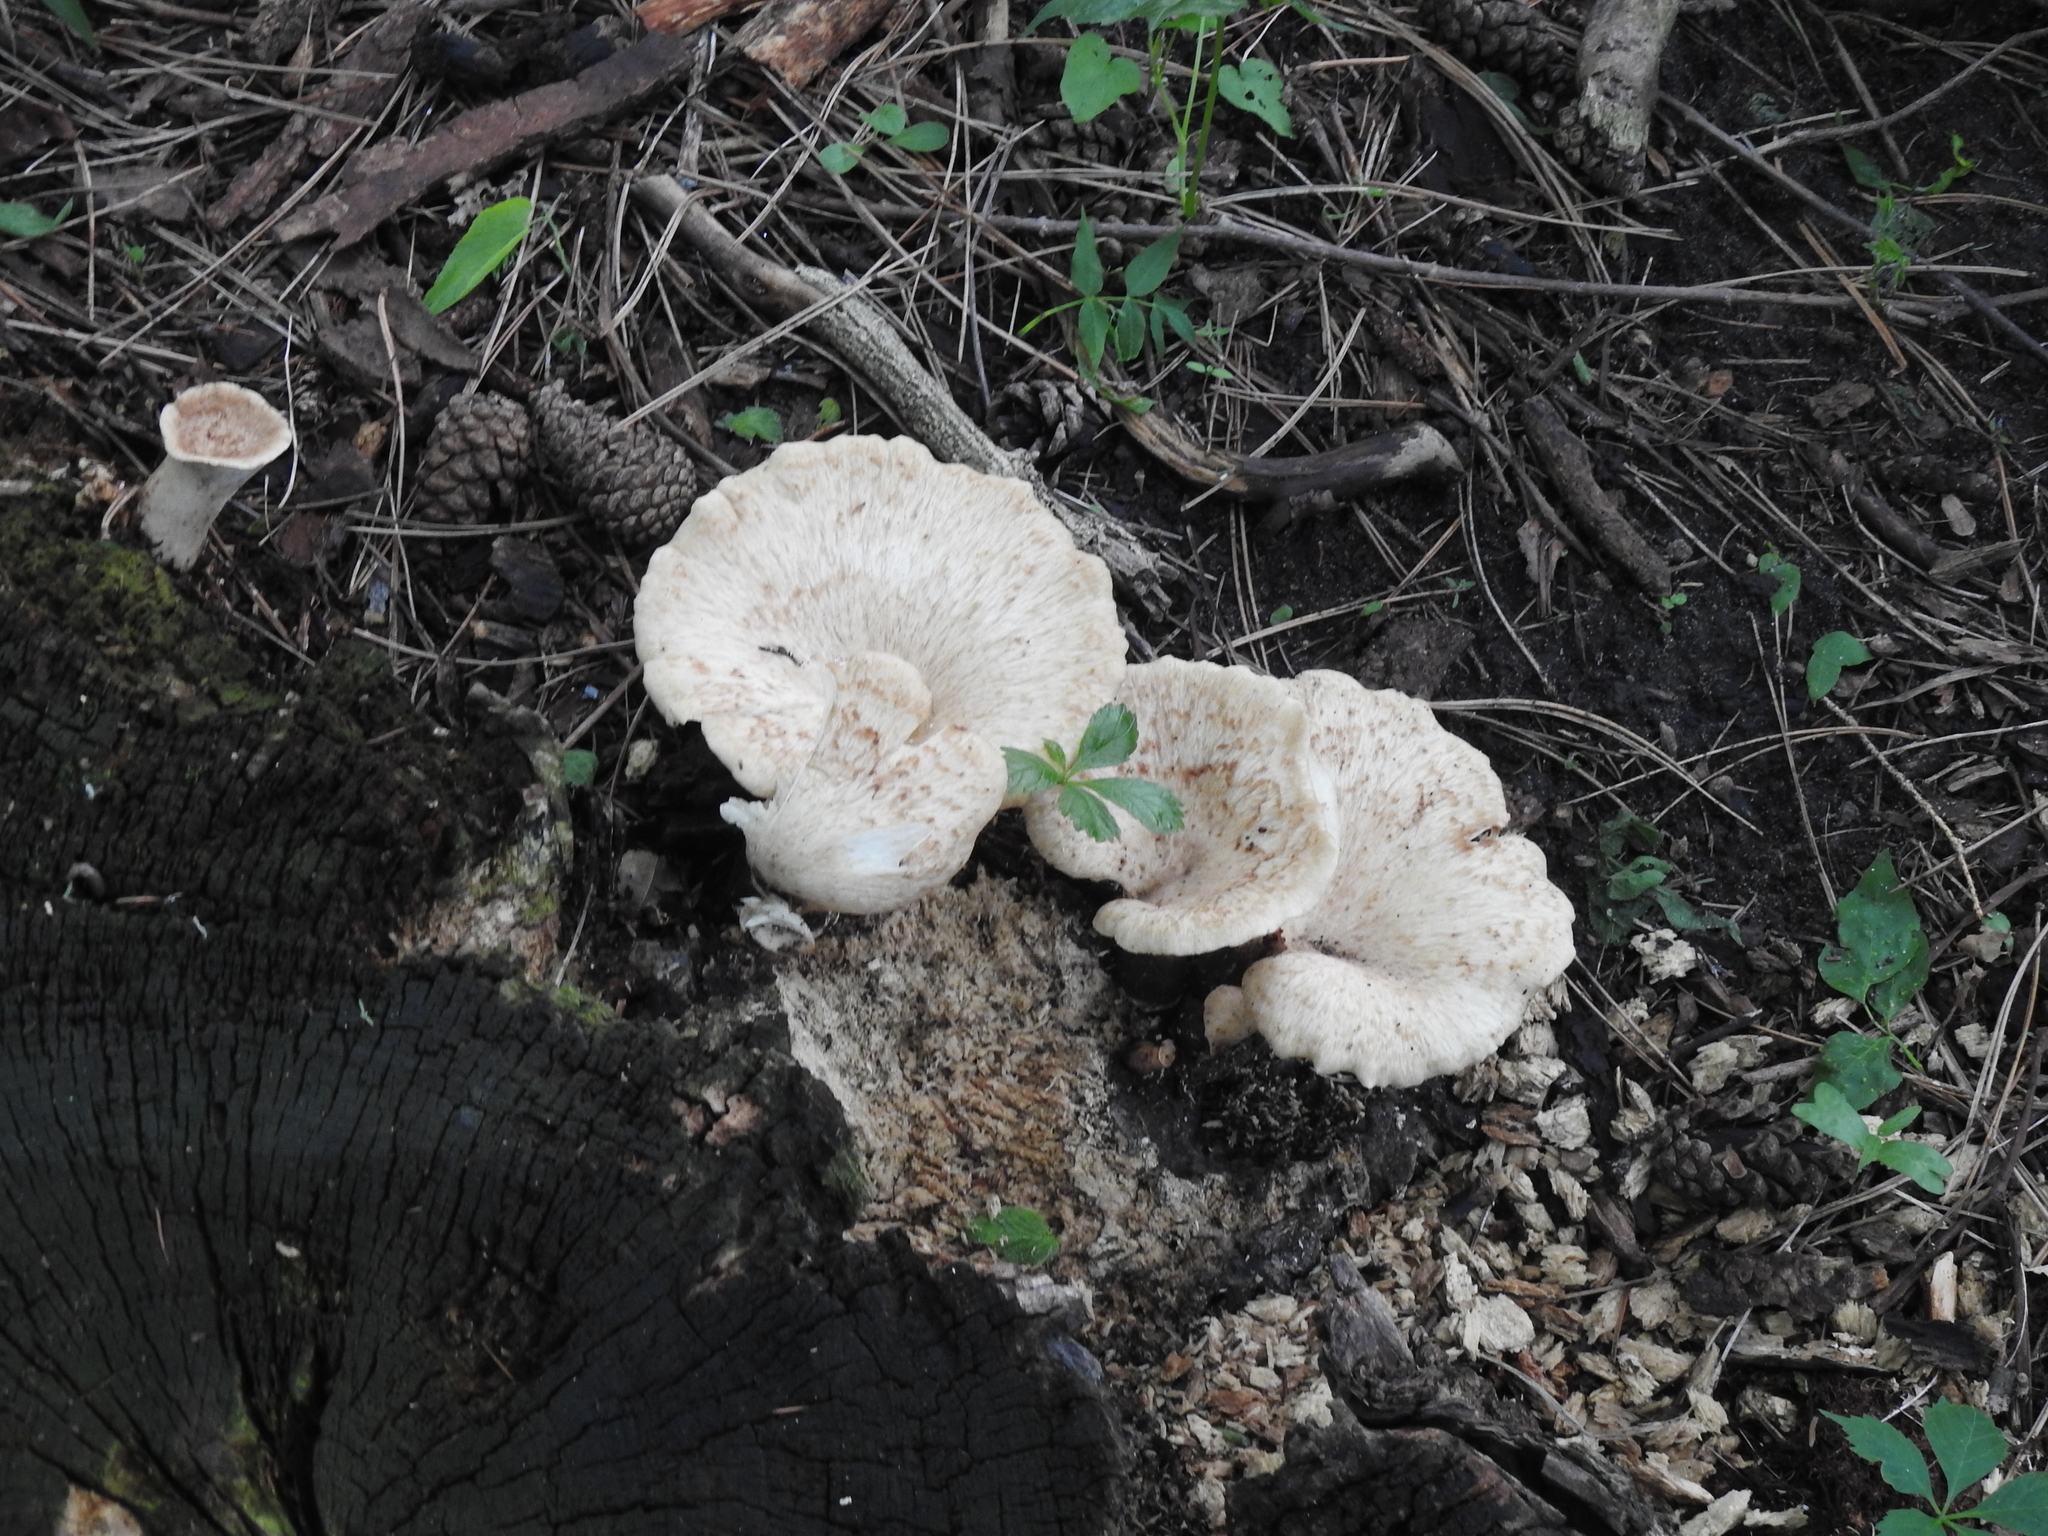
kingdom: Fungi
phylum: Basidiomycota
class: Agaricomycetes
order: Polyporales
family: Polyporaceae
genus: Cerioporus
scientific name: Cerioporus squamosus
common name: Dryad's saddle
